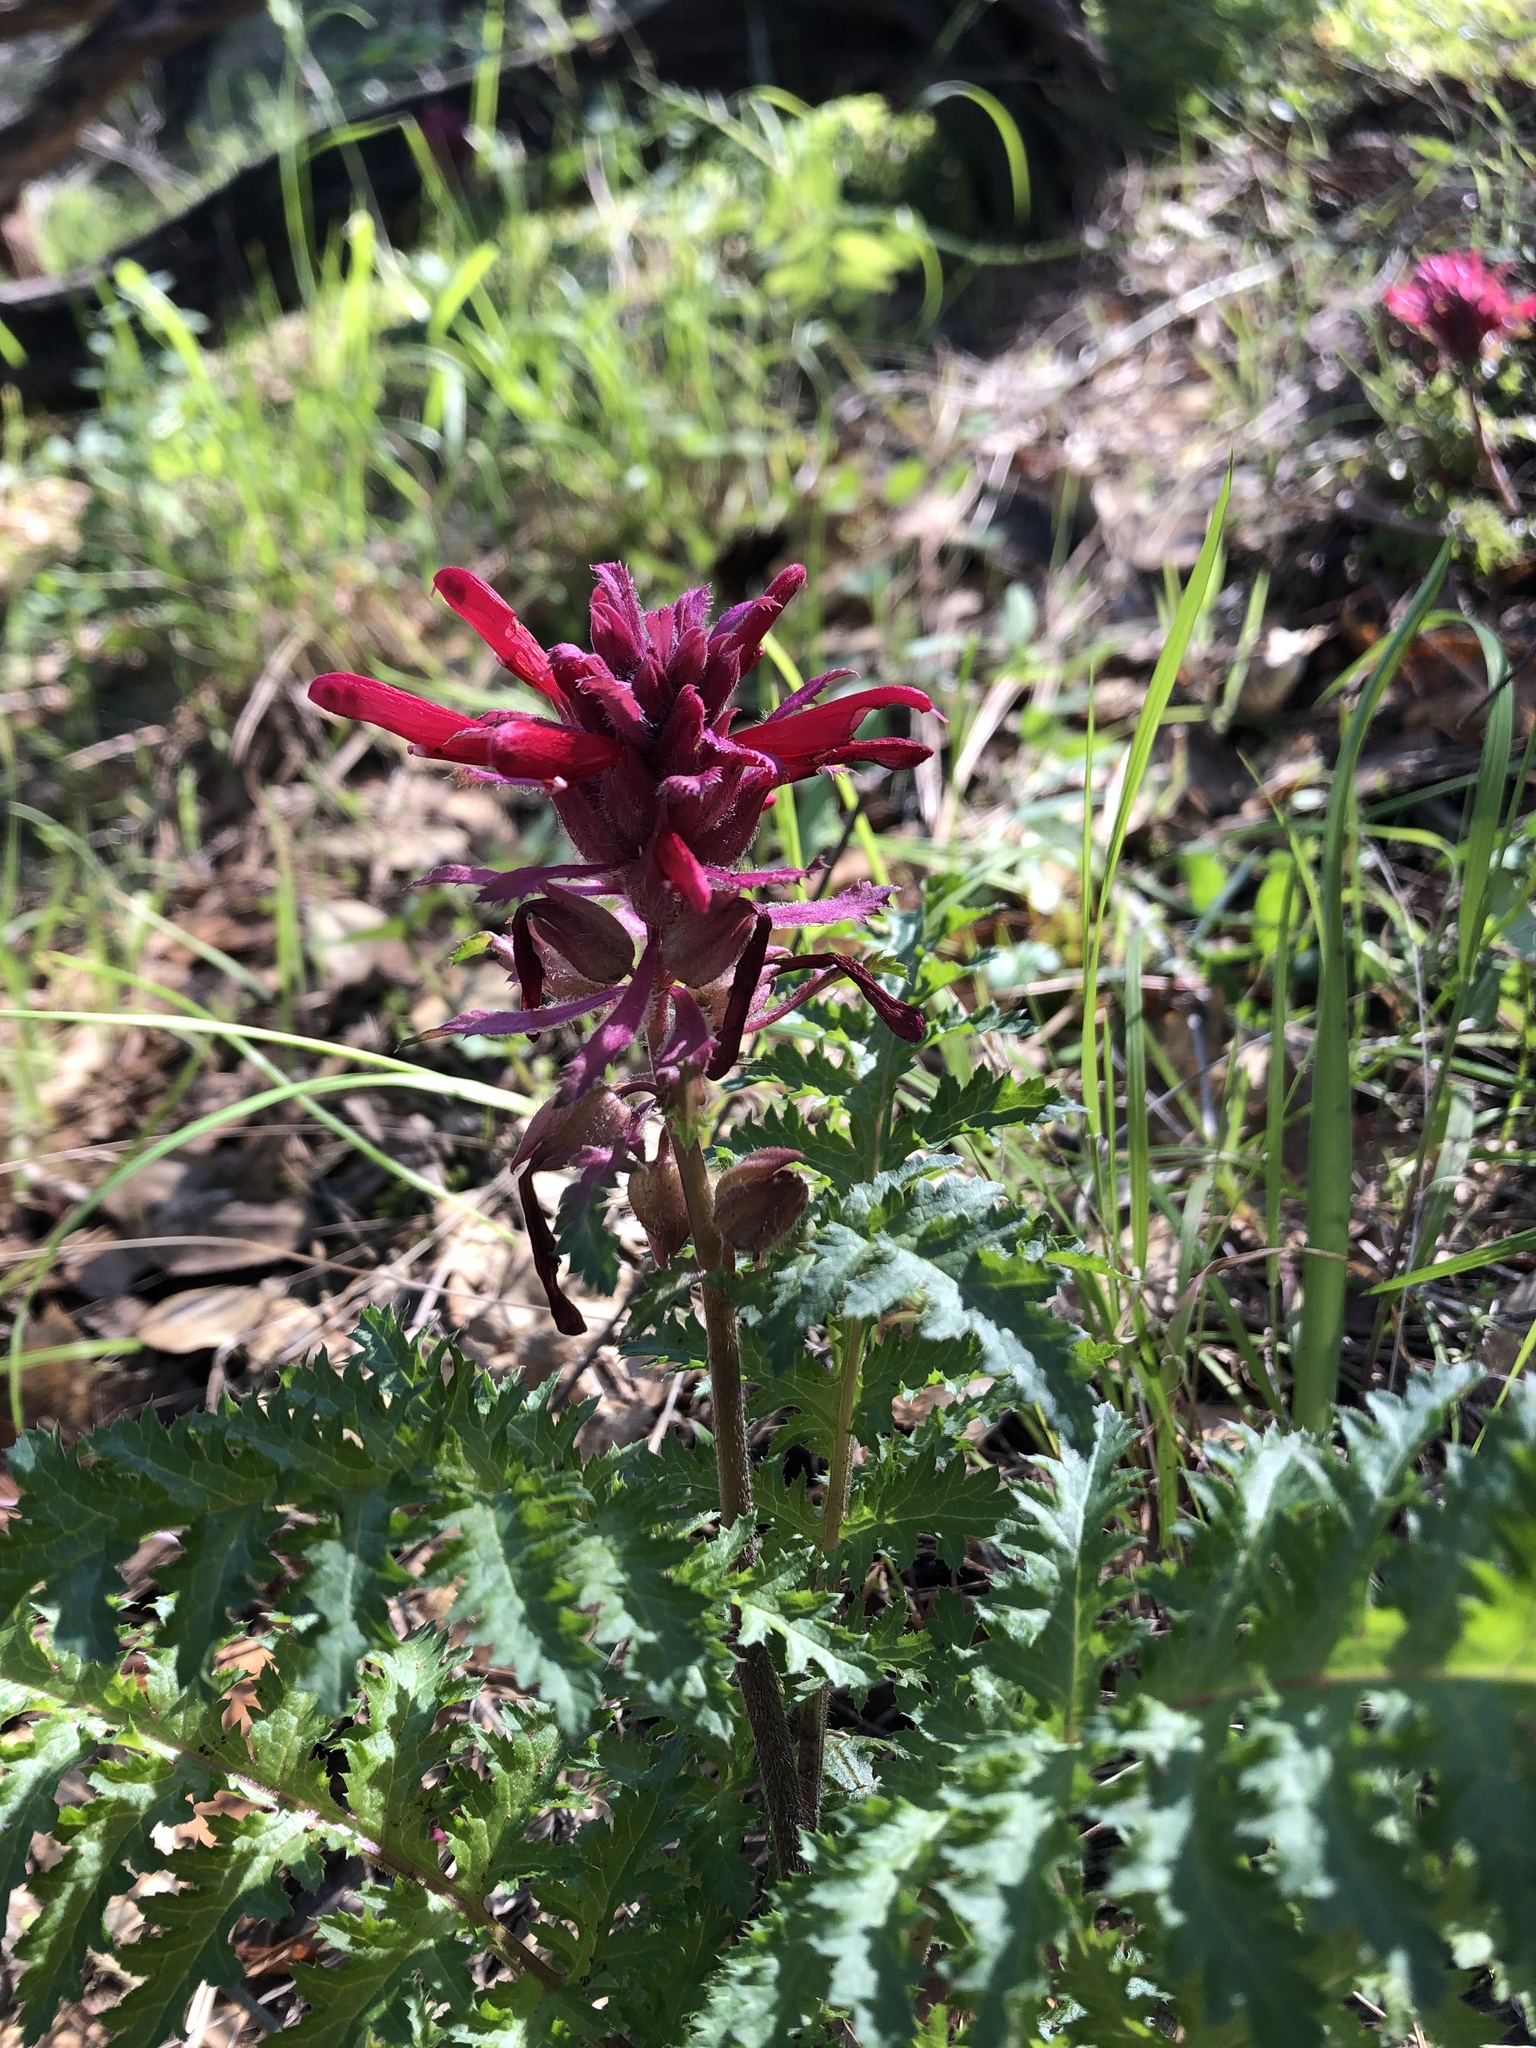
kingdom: Plantae
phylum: Tracheophyta
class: Magnoliopsida
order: Lamiales
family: Orobanchaceae
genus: Pedicularis
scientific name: Pedicularis densiflora
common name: Indian warrior
